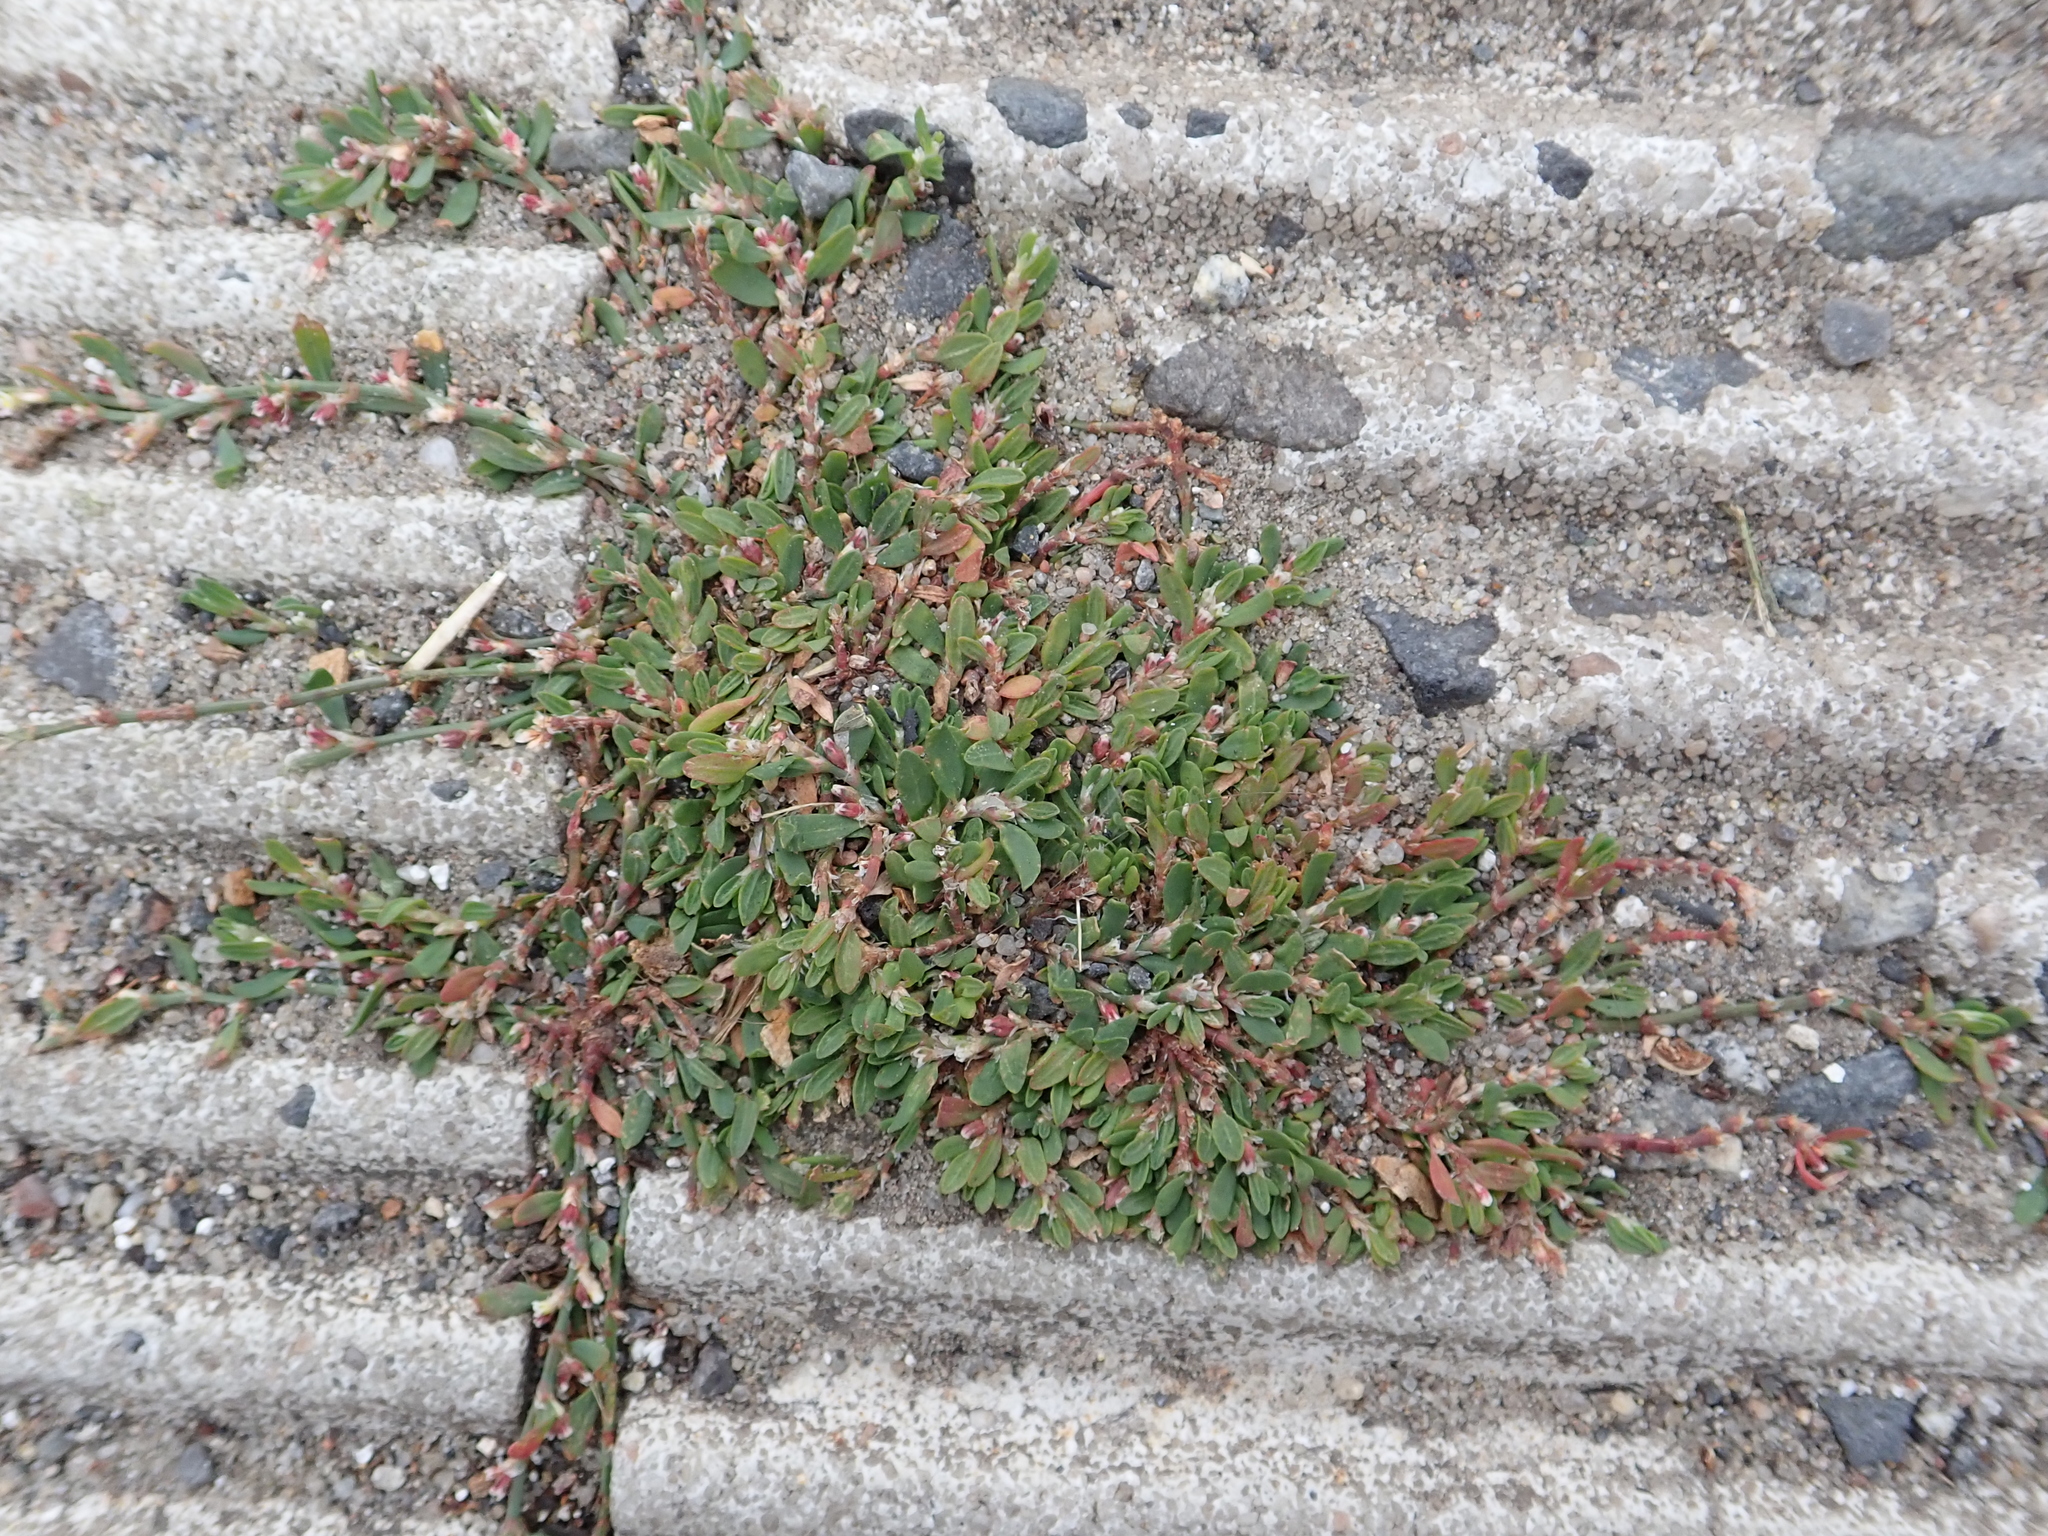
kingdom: Plantae
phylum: Tracheophyta
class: Magnoliopsida
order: Caryophyllales
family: Polygonaceae
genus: Polygonum
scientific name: Polygonum arenastrum
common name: Equal-leaved knotgrass
